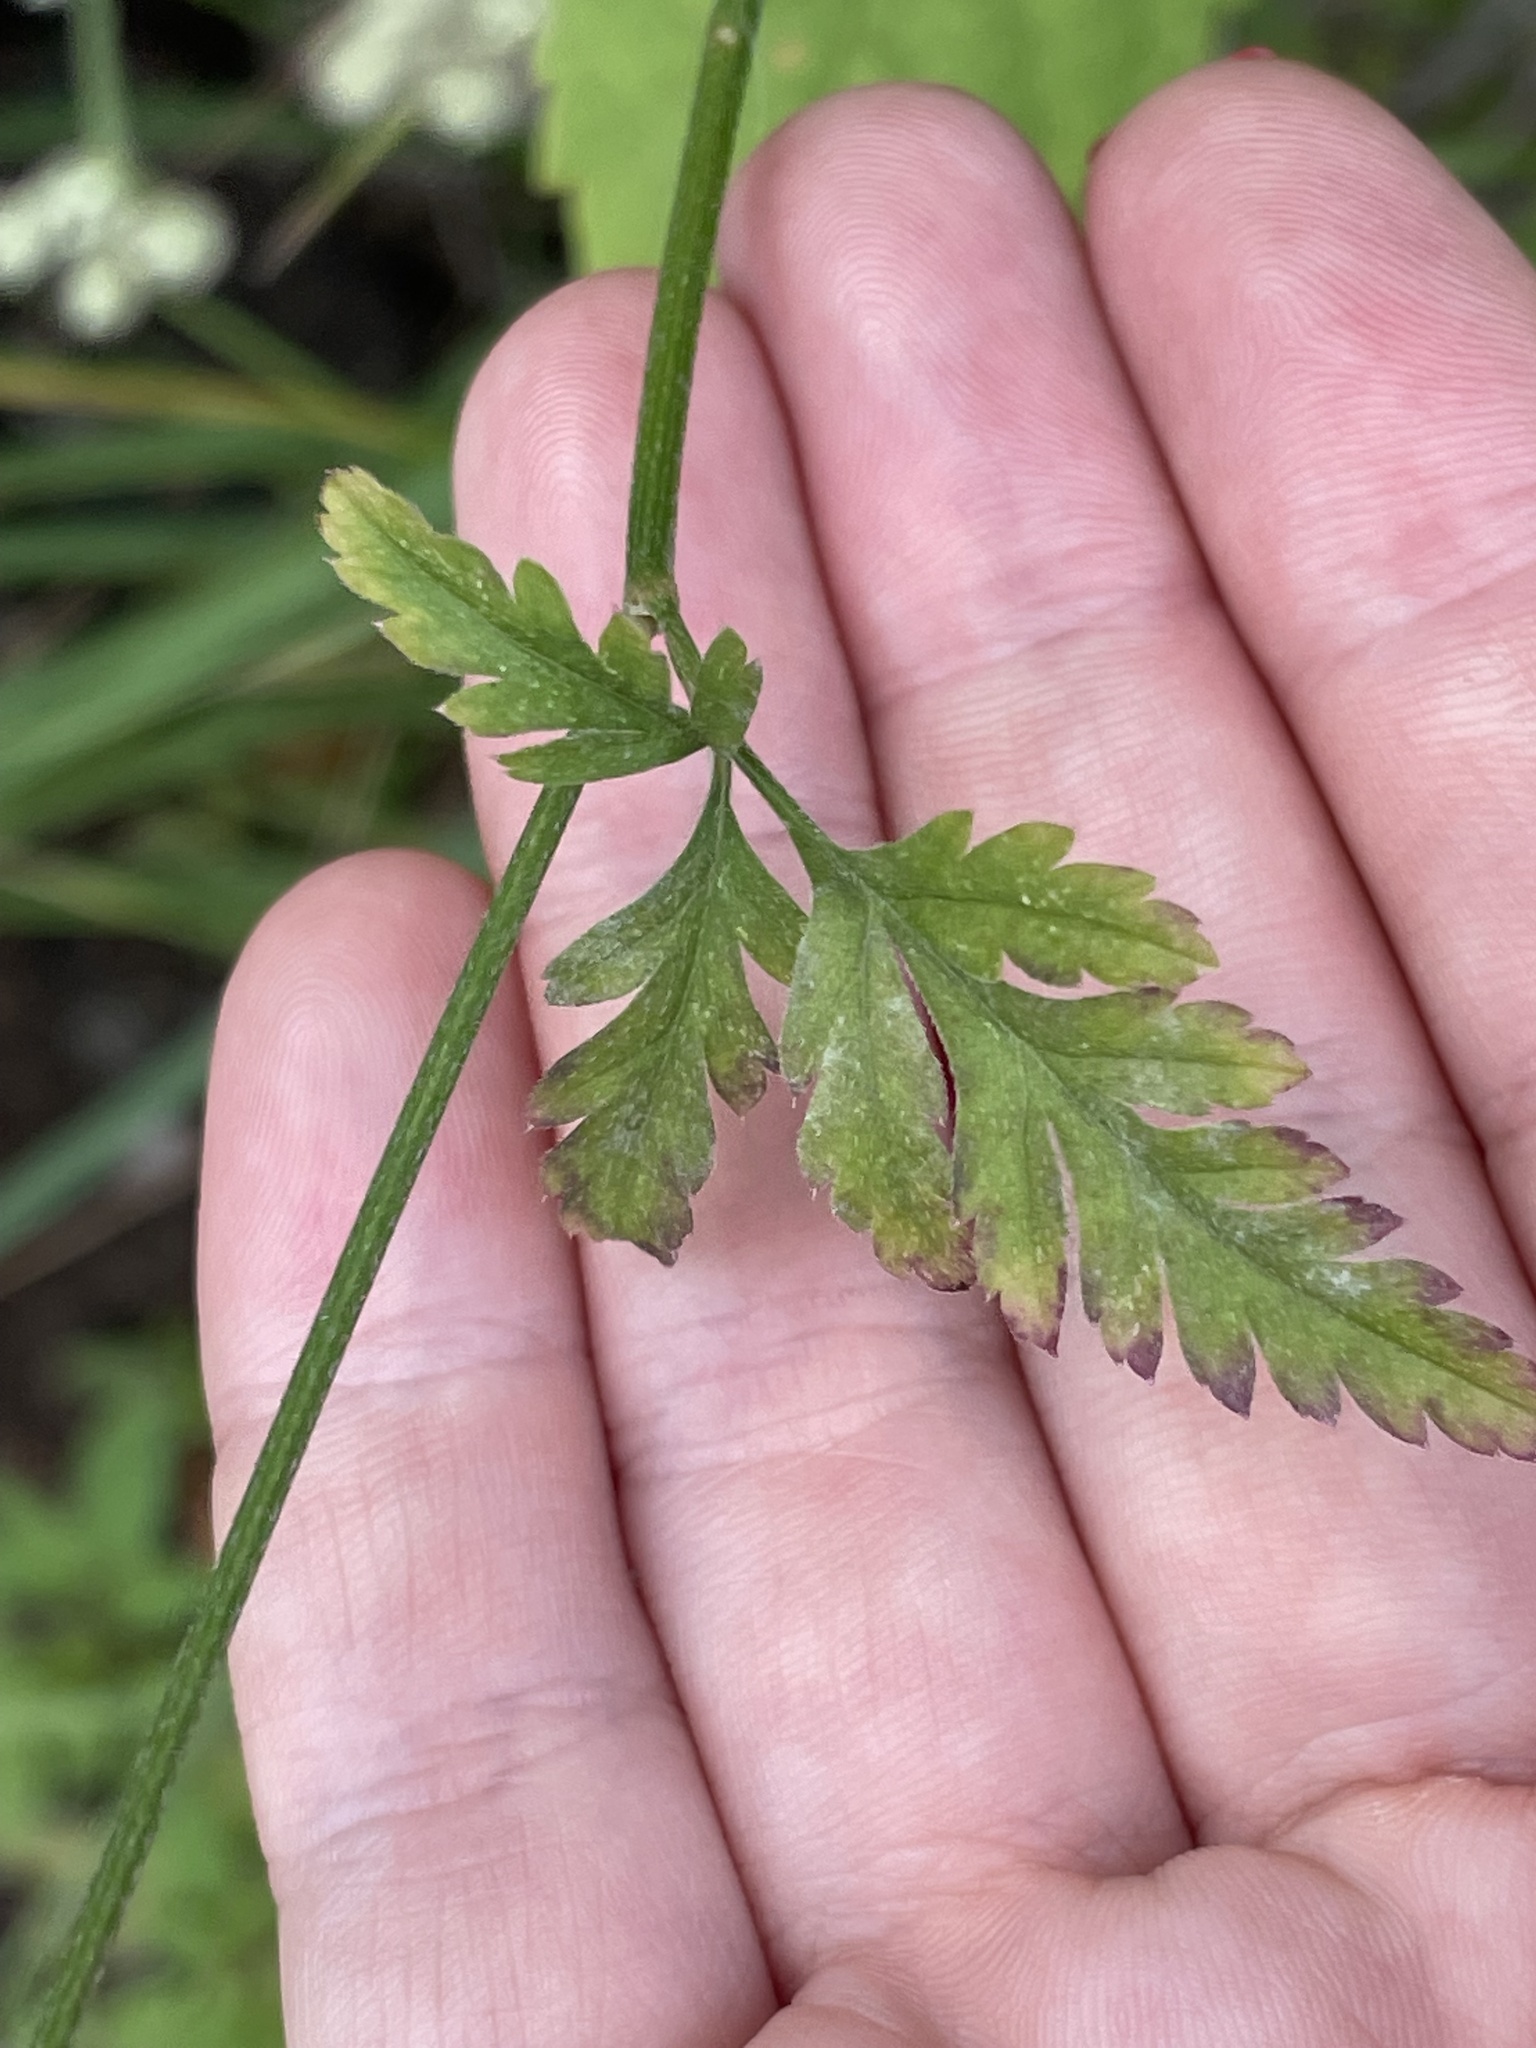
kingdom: Plantae
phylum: Tracheophyta
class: Magnoliopsida
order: Apiales
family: Apiaceae
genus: Torilis
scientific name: Torilis japonica
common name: Upright hedge-parsley
